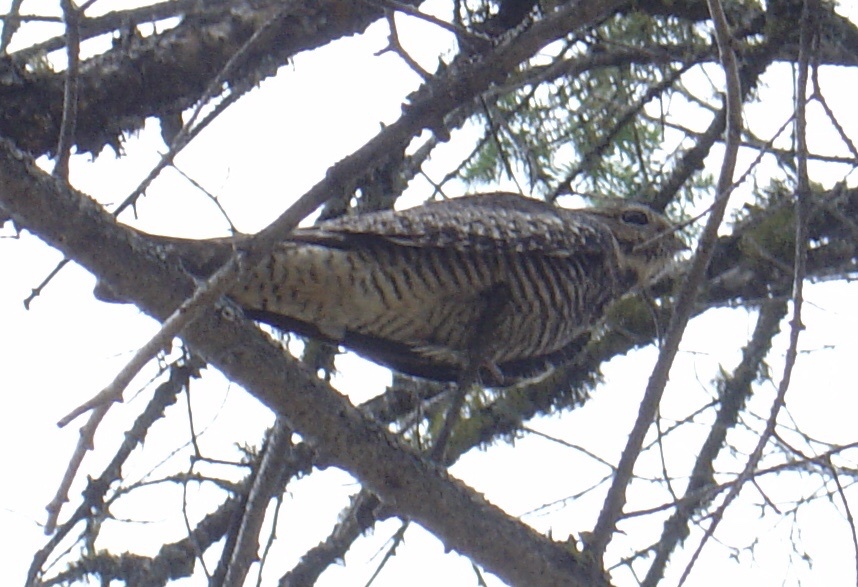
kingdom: Animalia
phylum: Chordata
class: Aves
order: Caprimulgiformes
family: Caprimulgidae
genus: Chordeiles
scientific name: Chordeiles minor
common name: Common nighthawk
